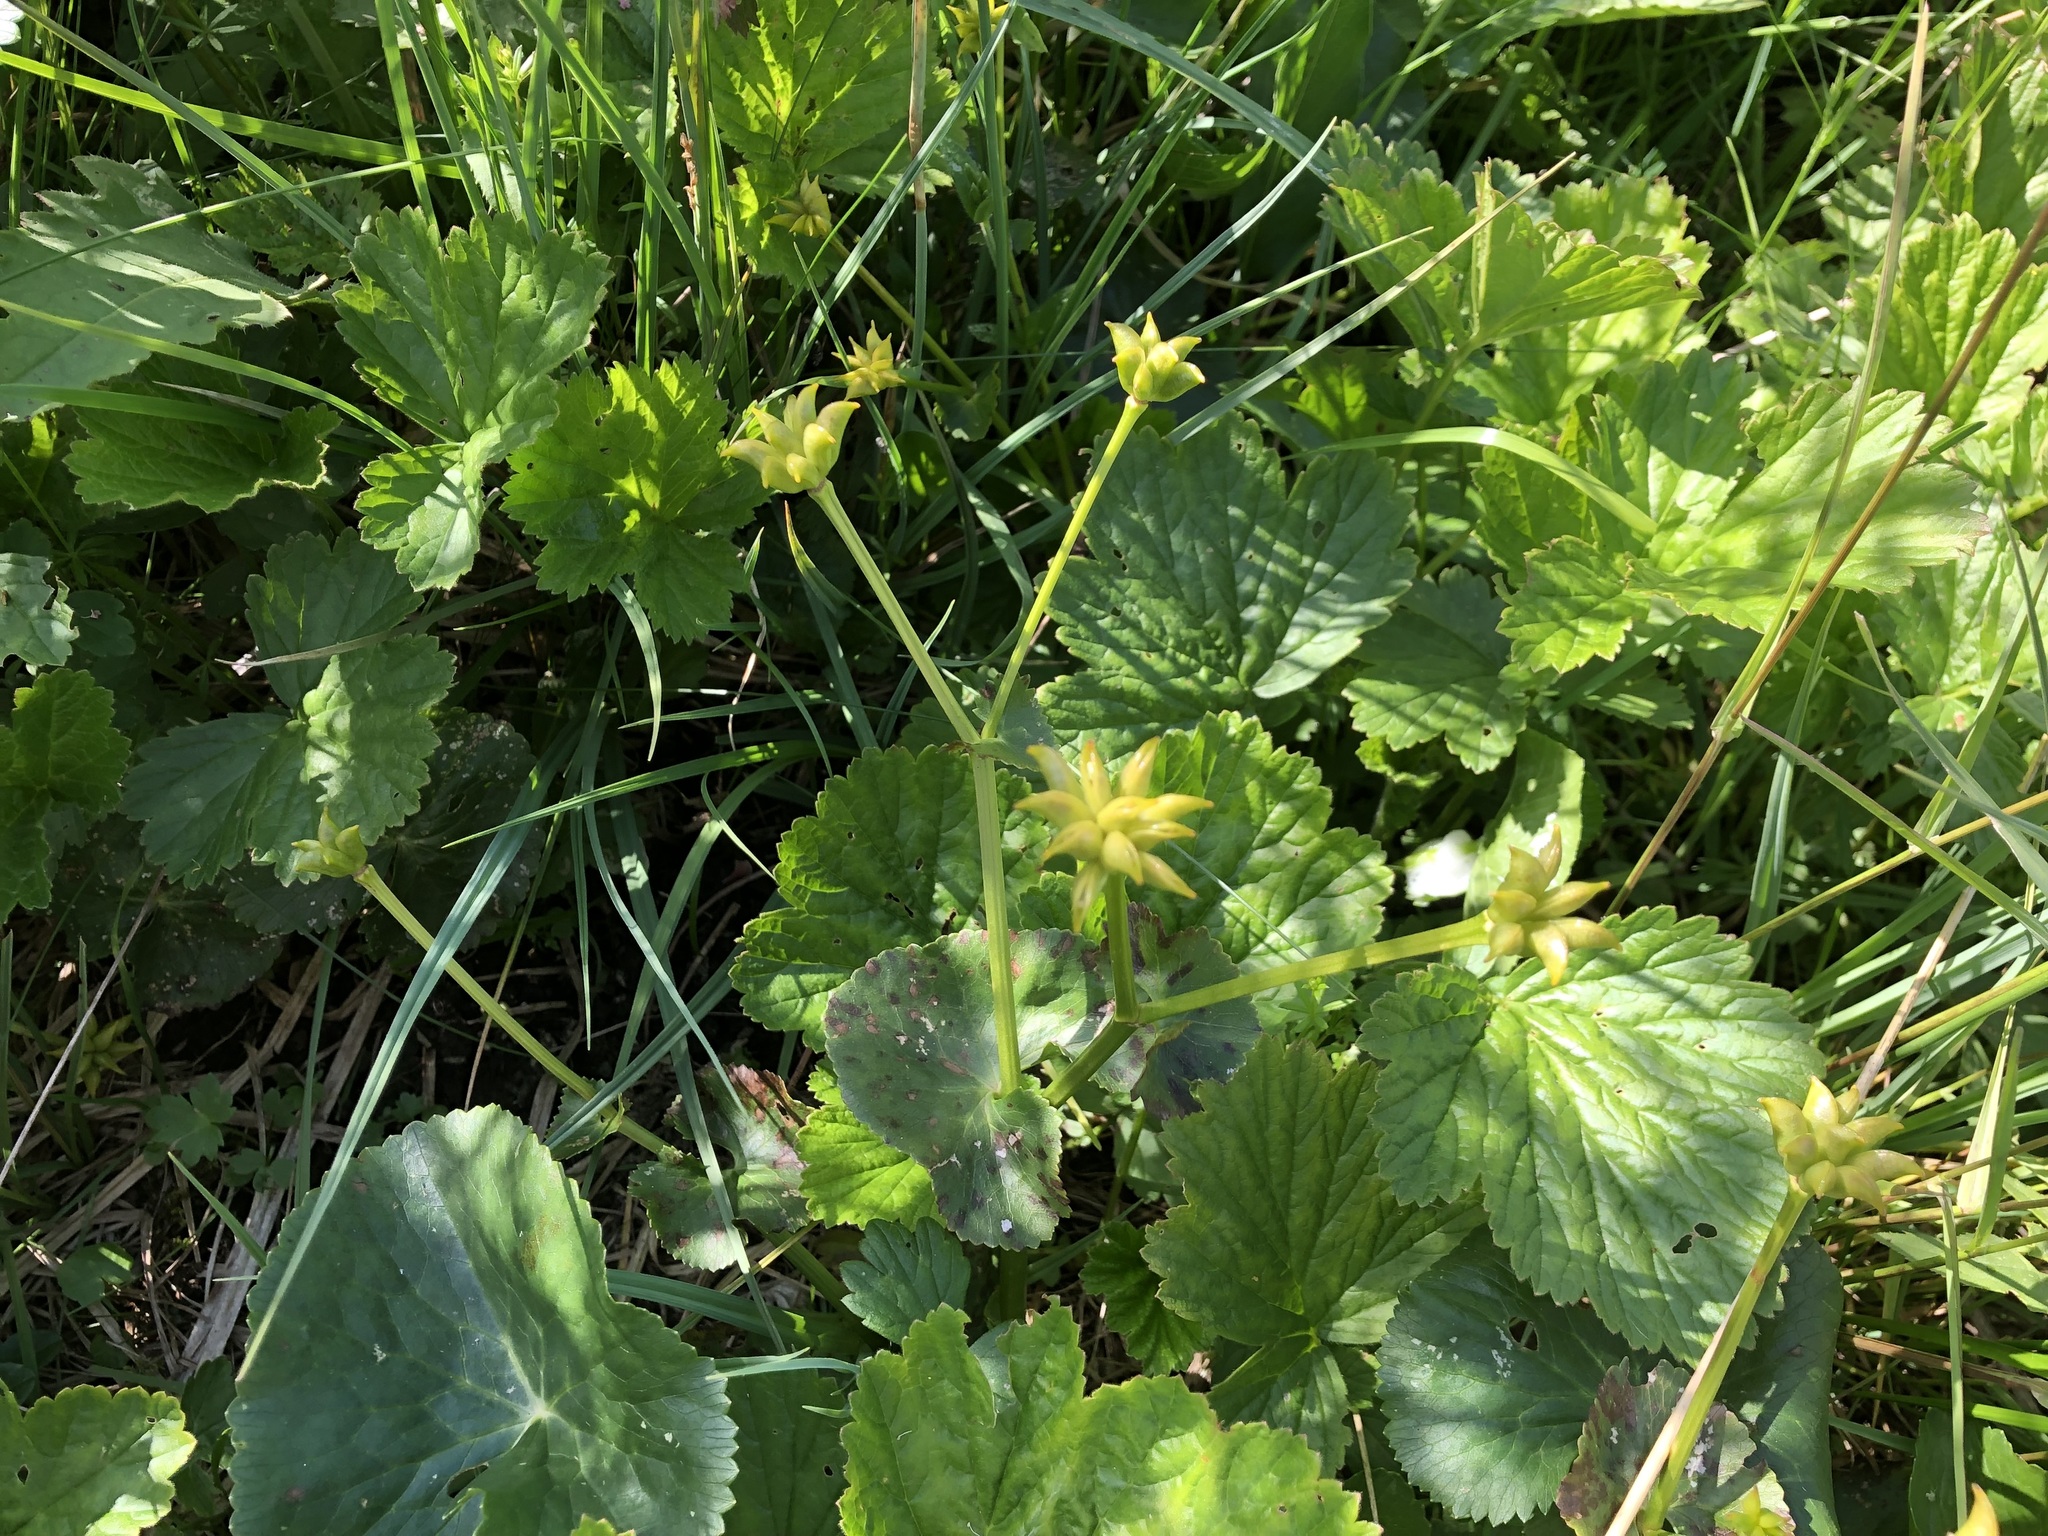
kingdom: Plantae
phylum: Tracheophyta
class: Magnoliopsida
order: Ranunculales
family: Ranunculaceae
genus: Caltha
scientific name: Caltha palustris
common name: Marsh marigold
